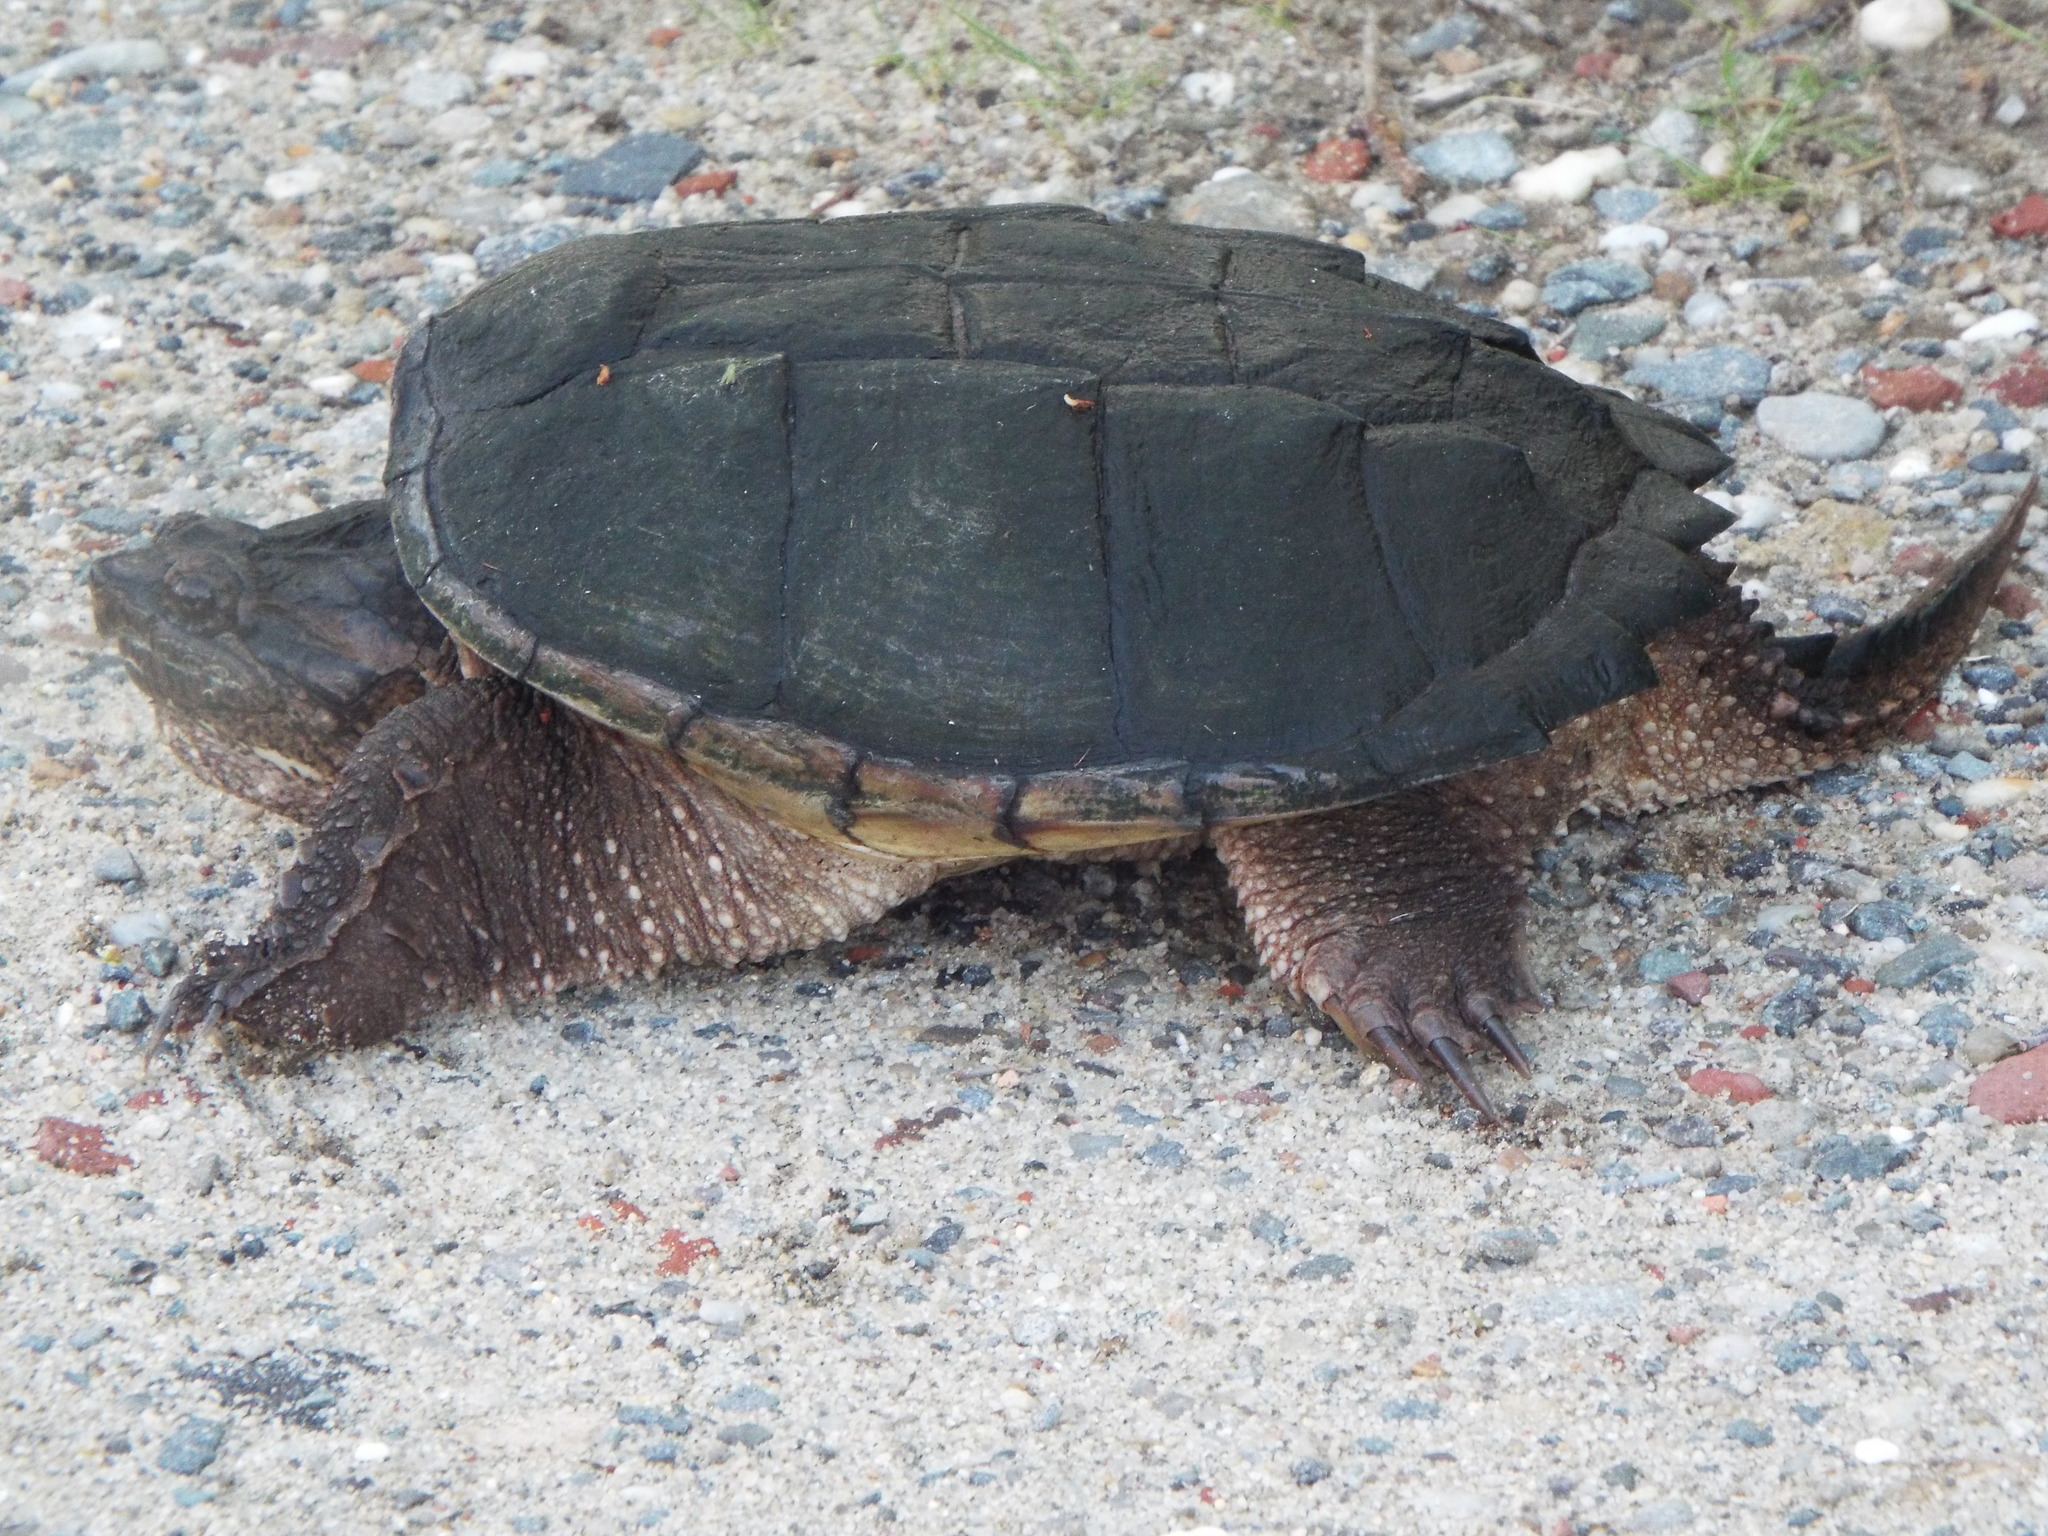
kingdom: Animalia
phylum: Chordata
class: Testudines
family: Chelydridae
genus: Chelydra
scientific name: Chelydra serpentina
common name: Common snapping turtle
